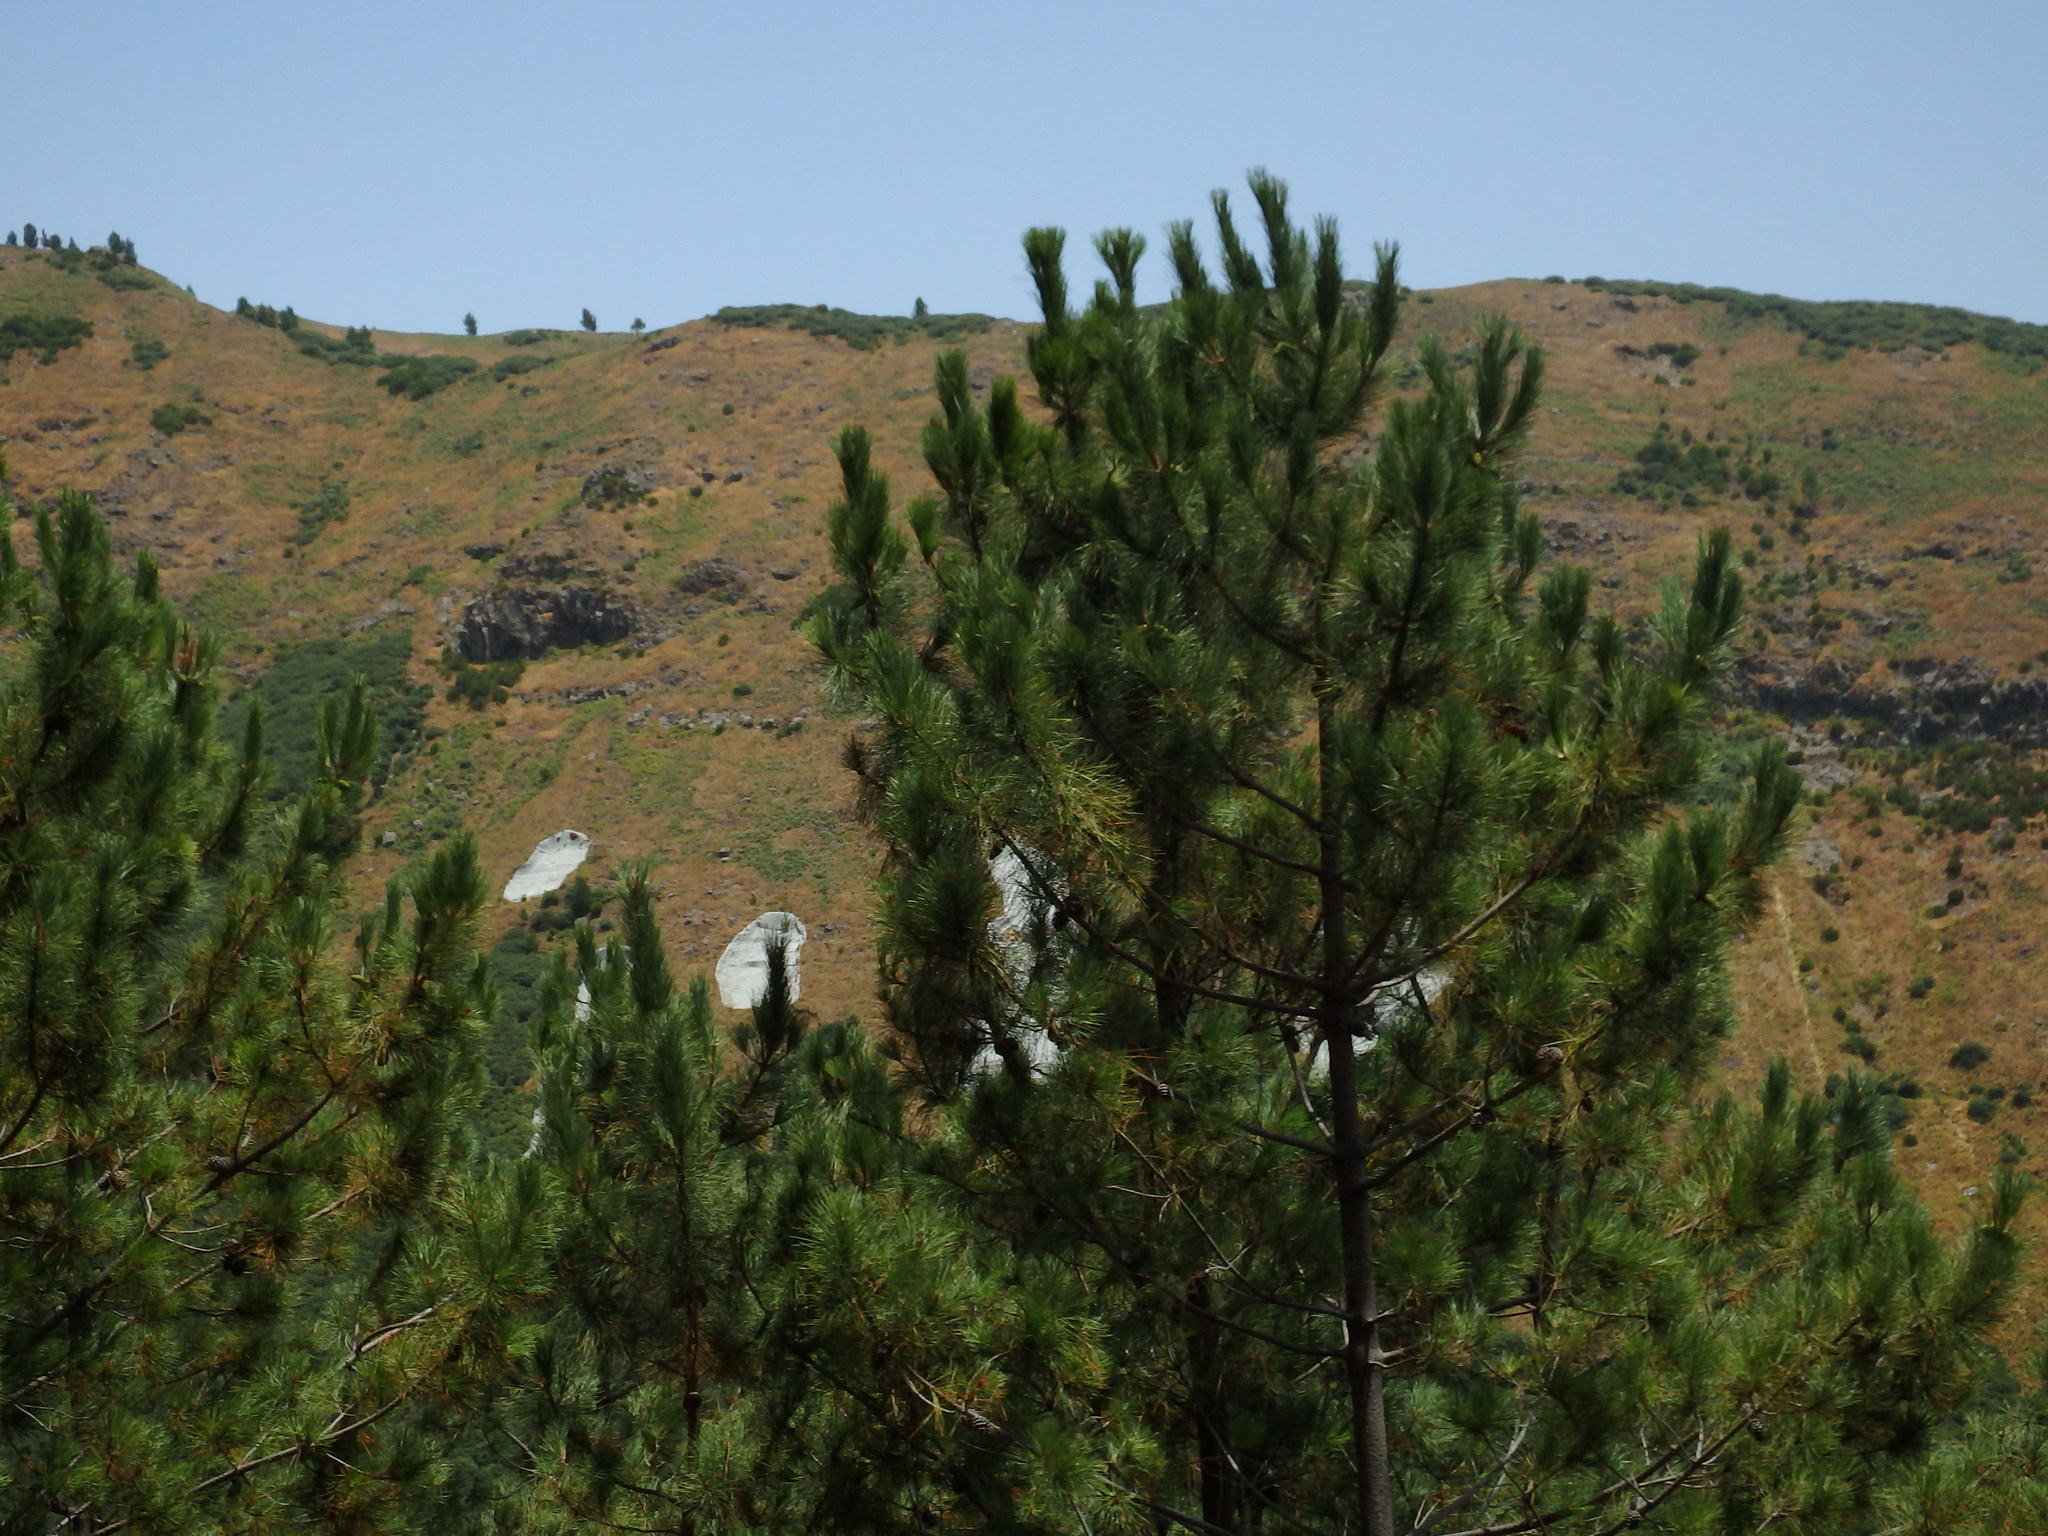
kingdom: Plantae
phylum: Tracheophyta
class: Pinopsida
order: Pinales
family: Pinaceae
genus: Pinus
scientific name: Pinus pinaster
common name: Maritime pine
